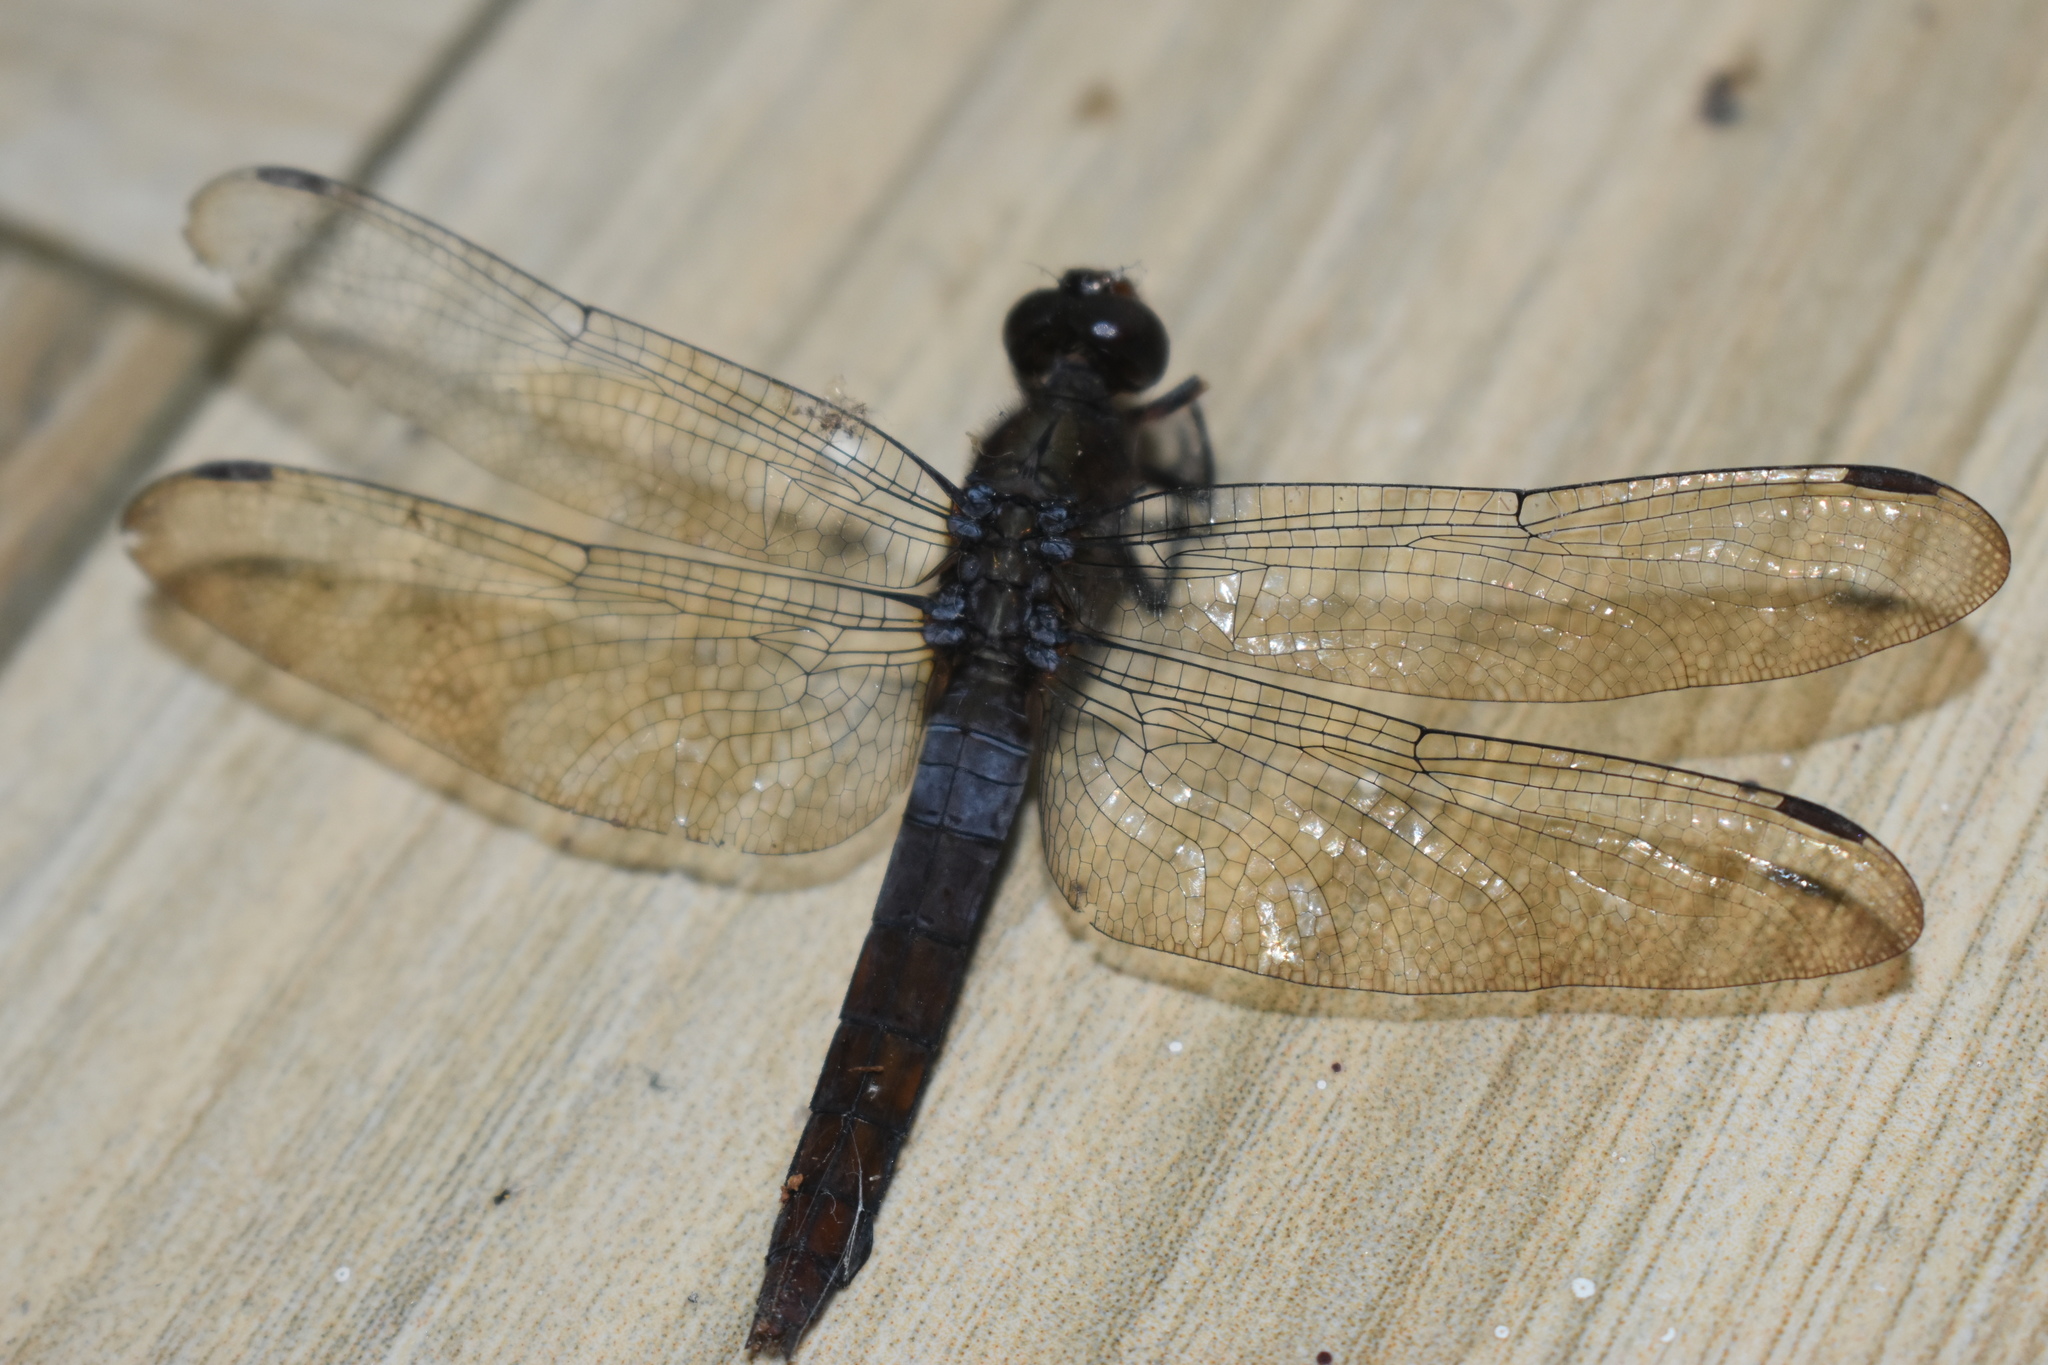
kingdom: Animalia
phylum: Arthropoda
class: Insecta
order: Odonata
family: Libellulidae
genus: Orthetrum
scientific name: Orthetrum chrysis
